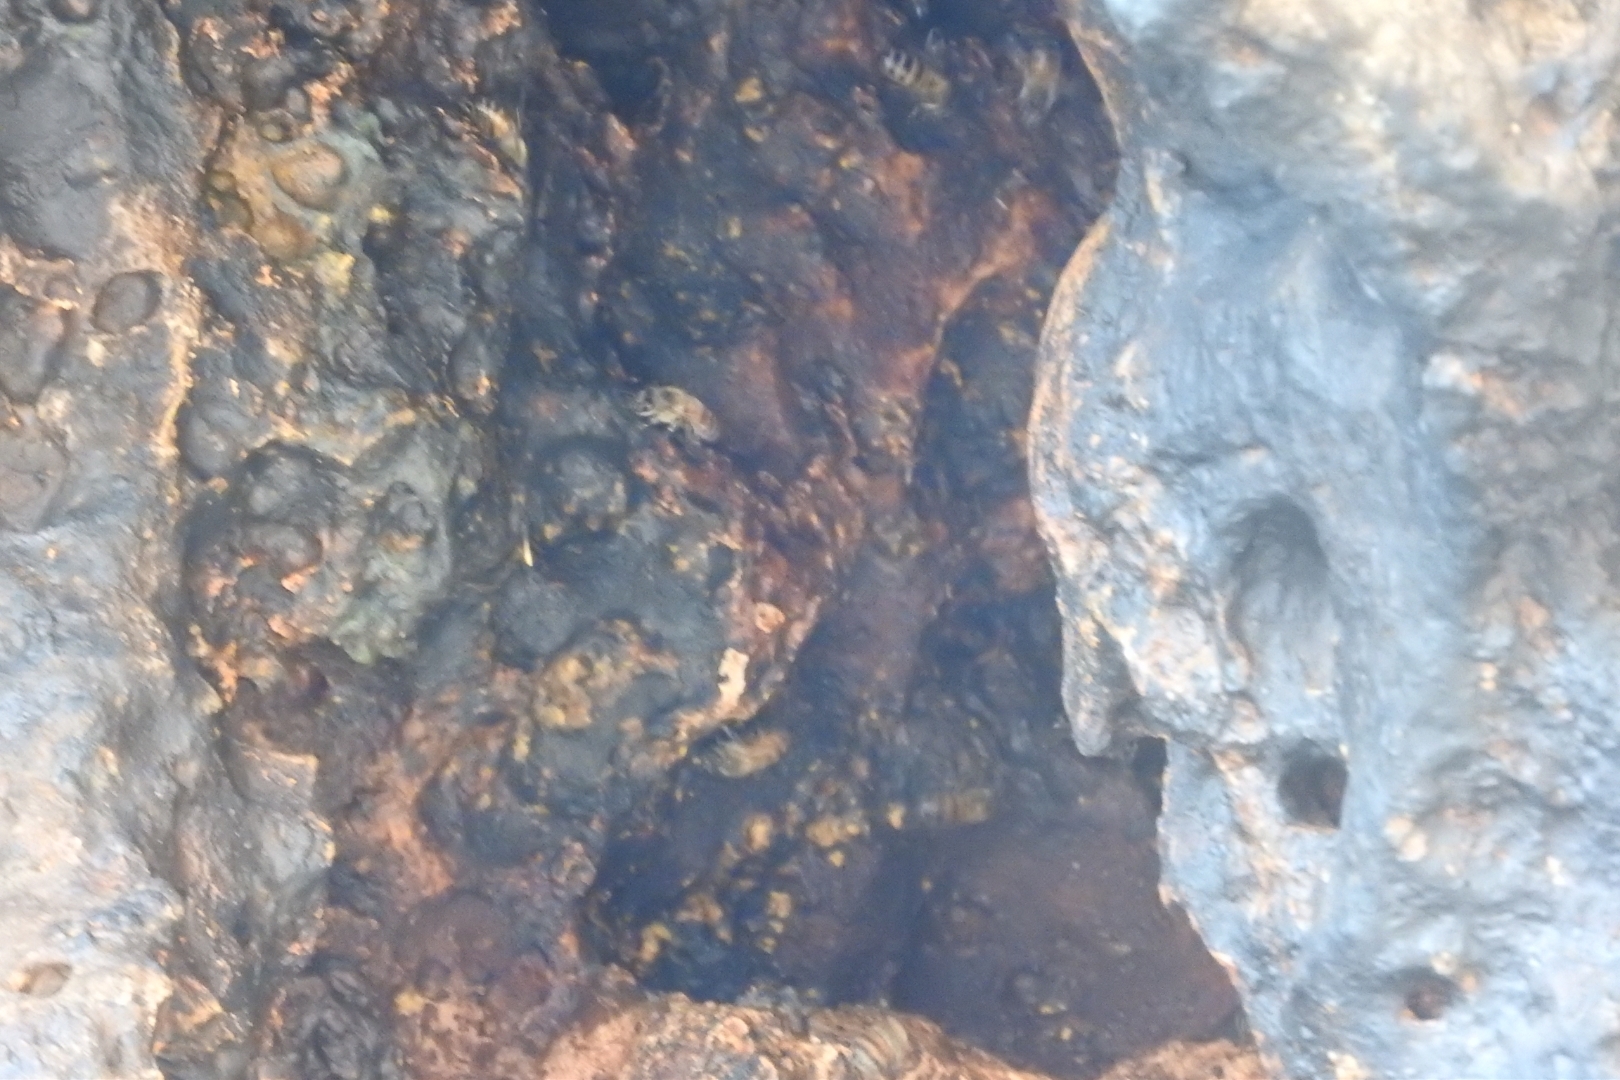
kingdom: Animalia
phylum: Arthropoda
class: Insecta
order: Hymenoptera
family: Apidae
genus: Apis
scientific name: Apis mellifera
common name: Honey bee
